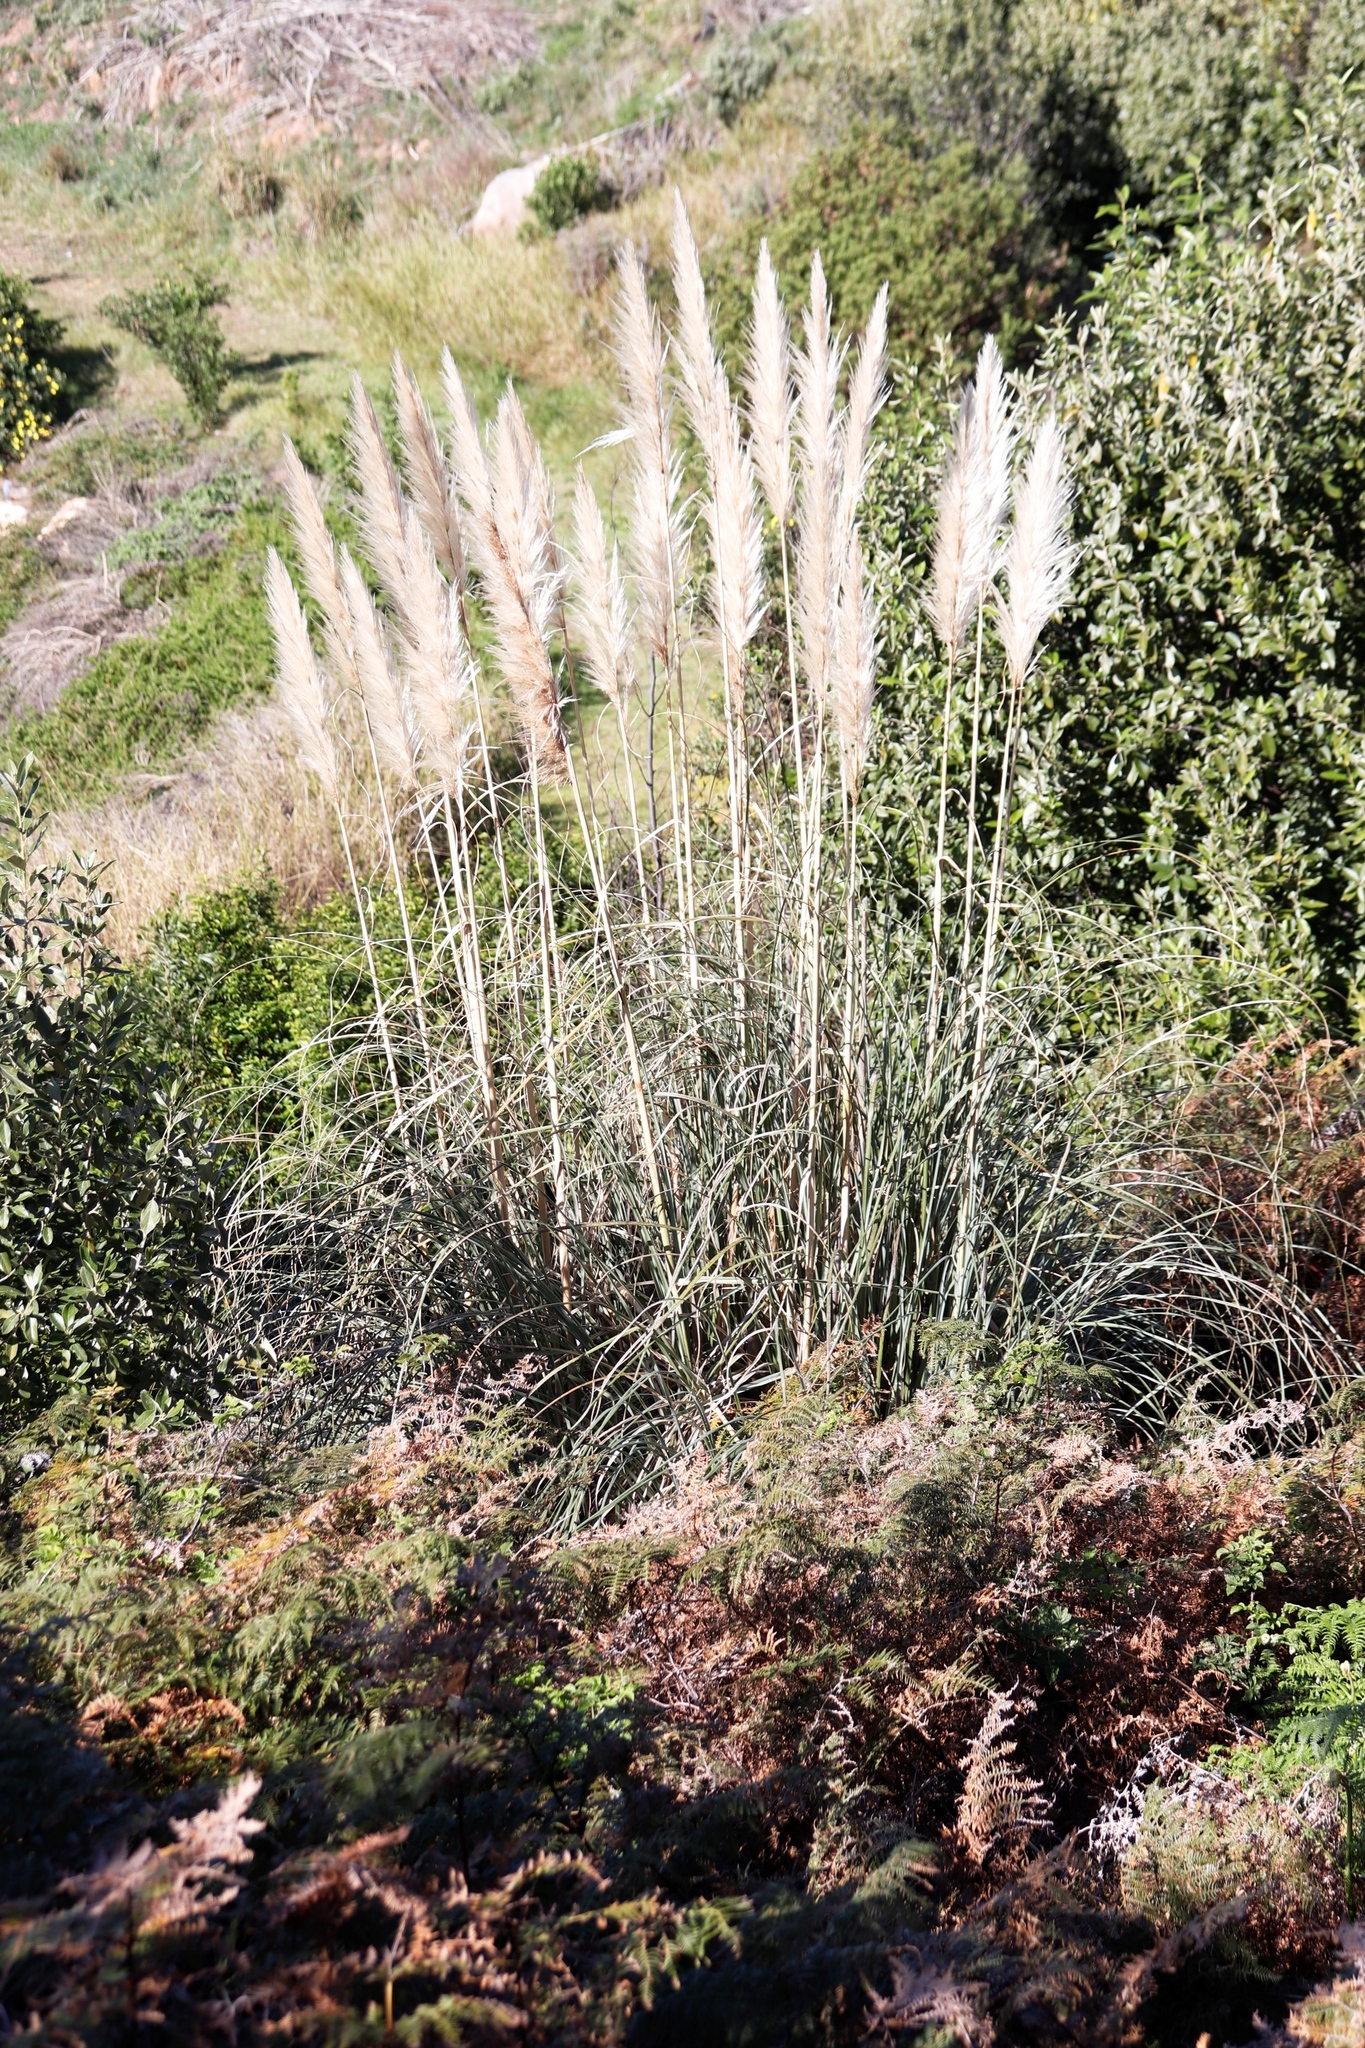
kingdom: Plantae
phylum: Tracheophyta
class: Liliopsida
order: Poales
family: Poaceae
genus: Cortaderia
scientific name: Cortaderia selloana
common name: Uruguayan pampas grass
